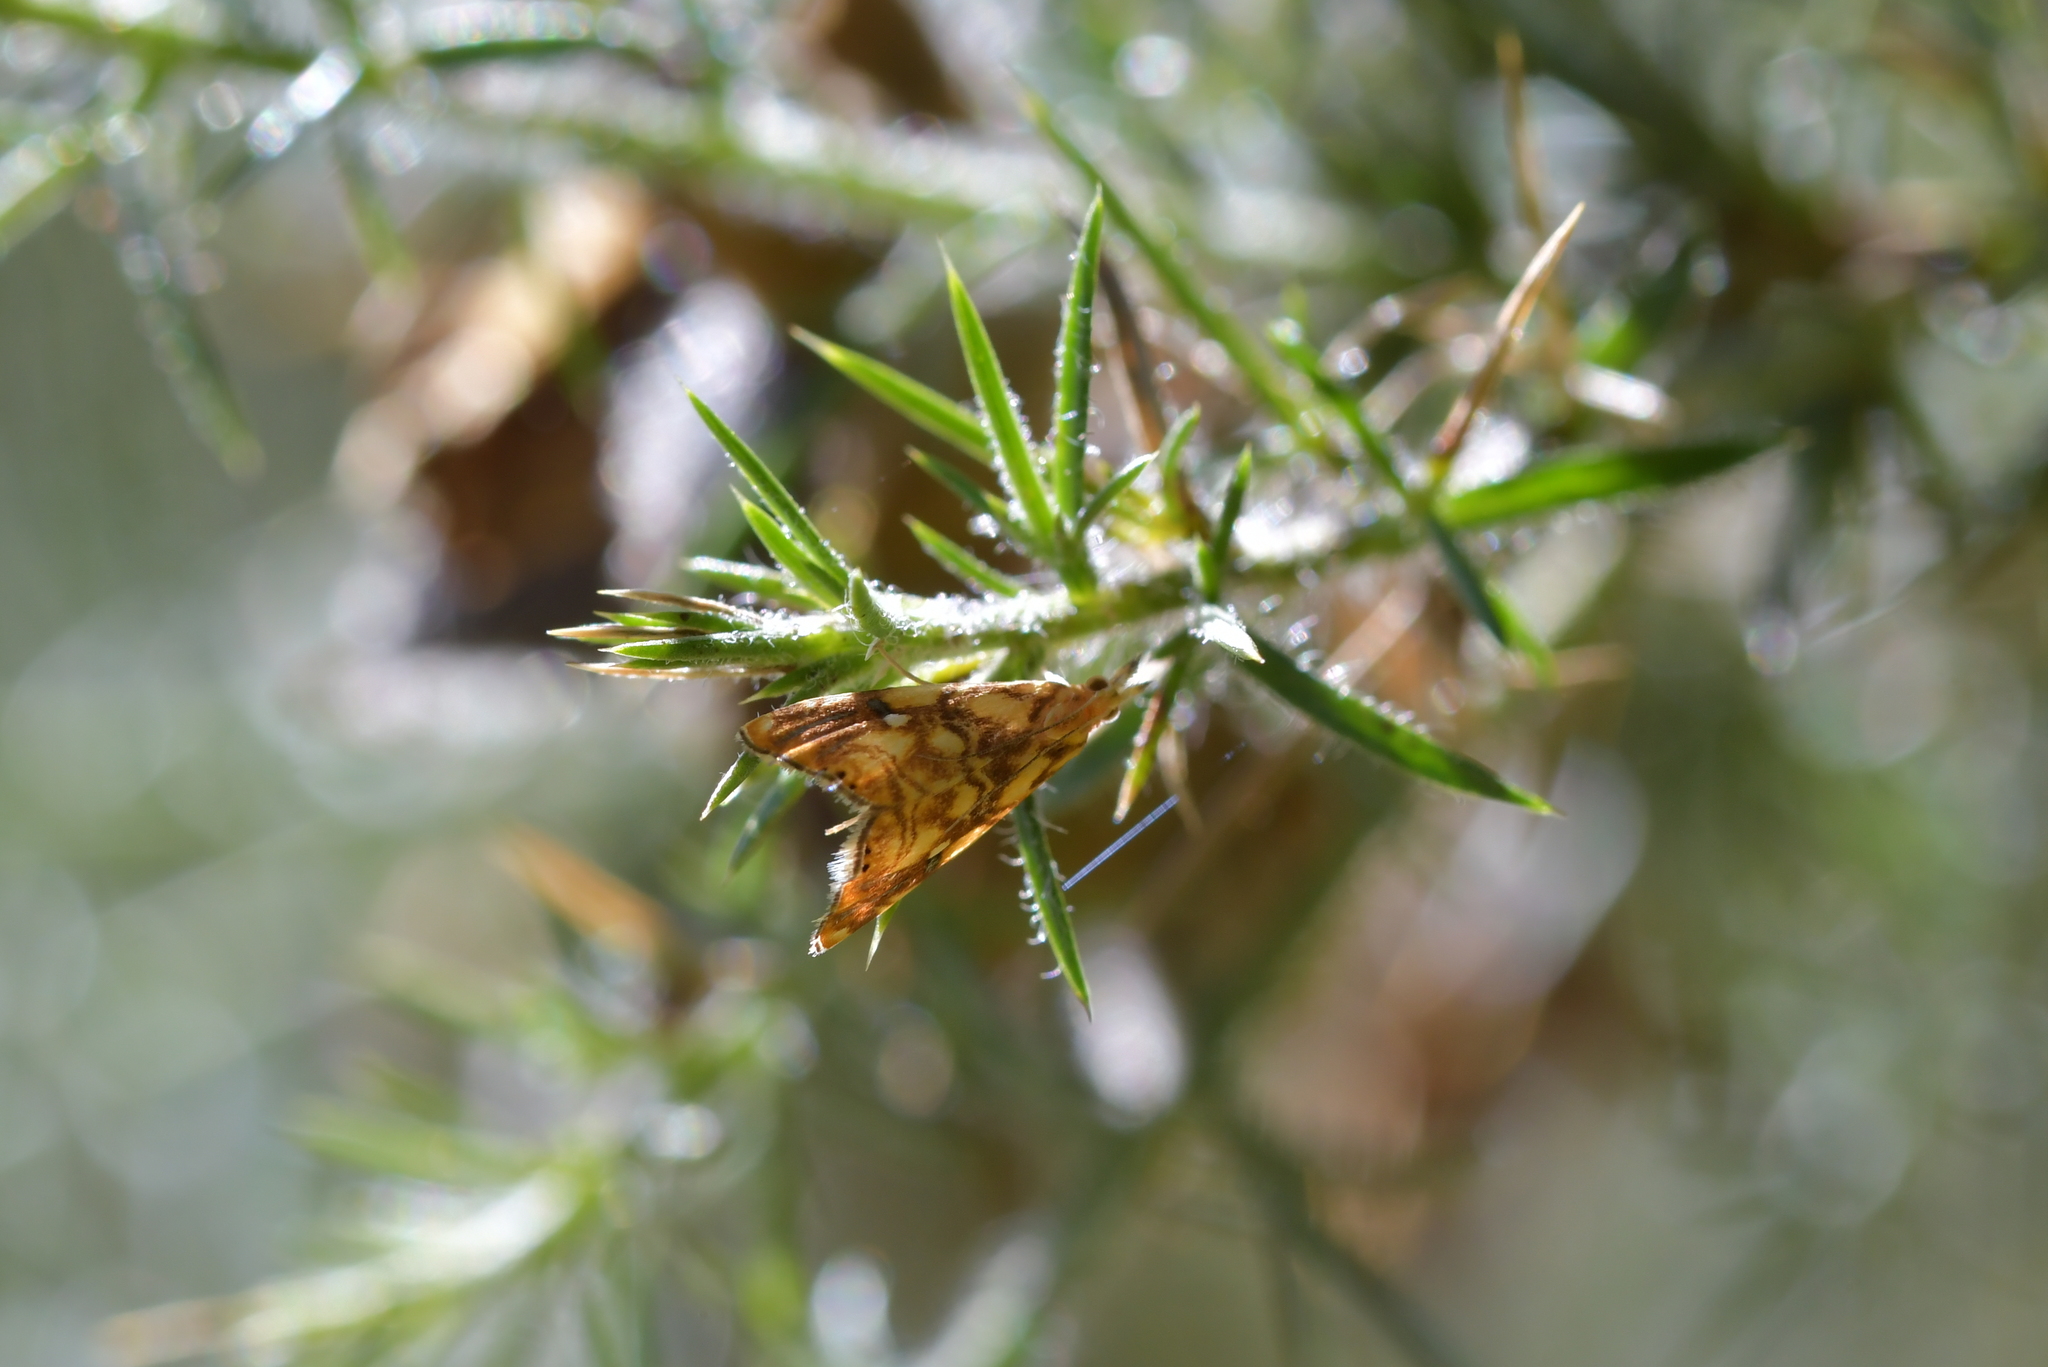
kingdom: Animalia
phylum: Arthropoda
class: Insecta
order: Lepidoptera
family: Crambidae
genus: Glaucocharis
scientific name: Glaucocharis selenaea
